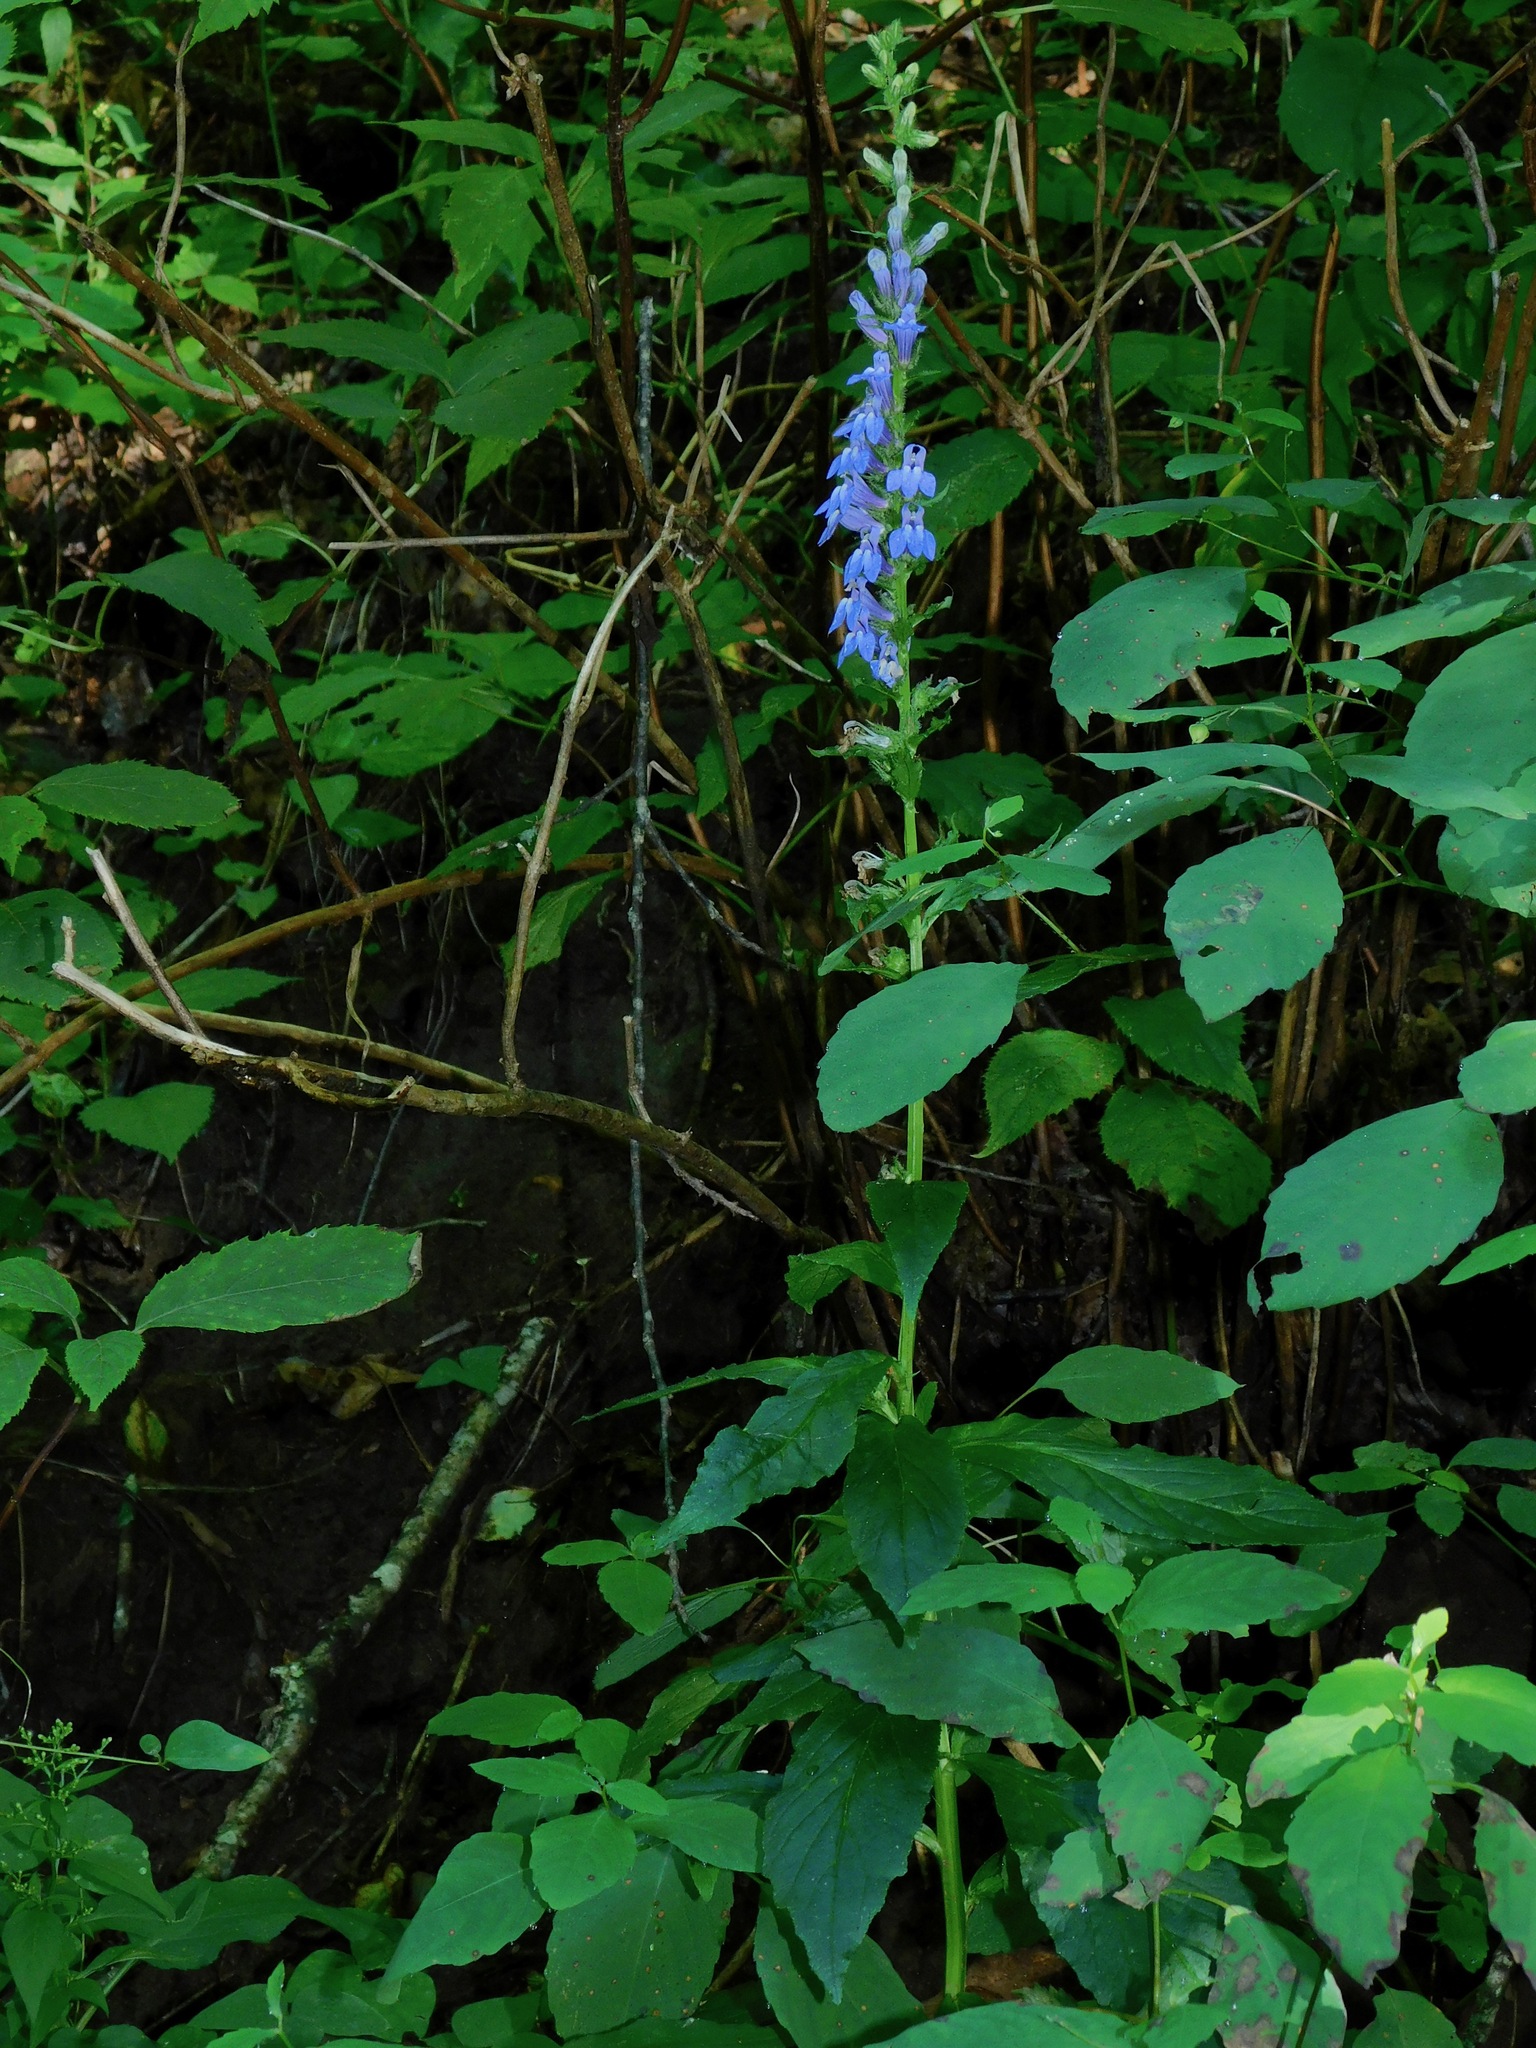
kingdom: Plantae
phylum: Tracheophyta
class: Magnoliopsida
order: Asterales
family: Campanulaceae
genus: Lobelia
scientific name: Lobelia siphilitica
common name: Great lobelia
